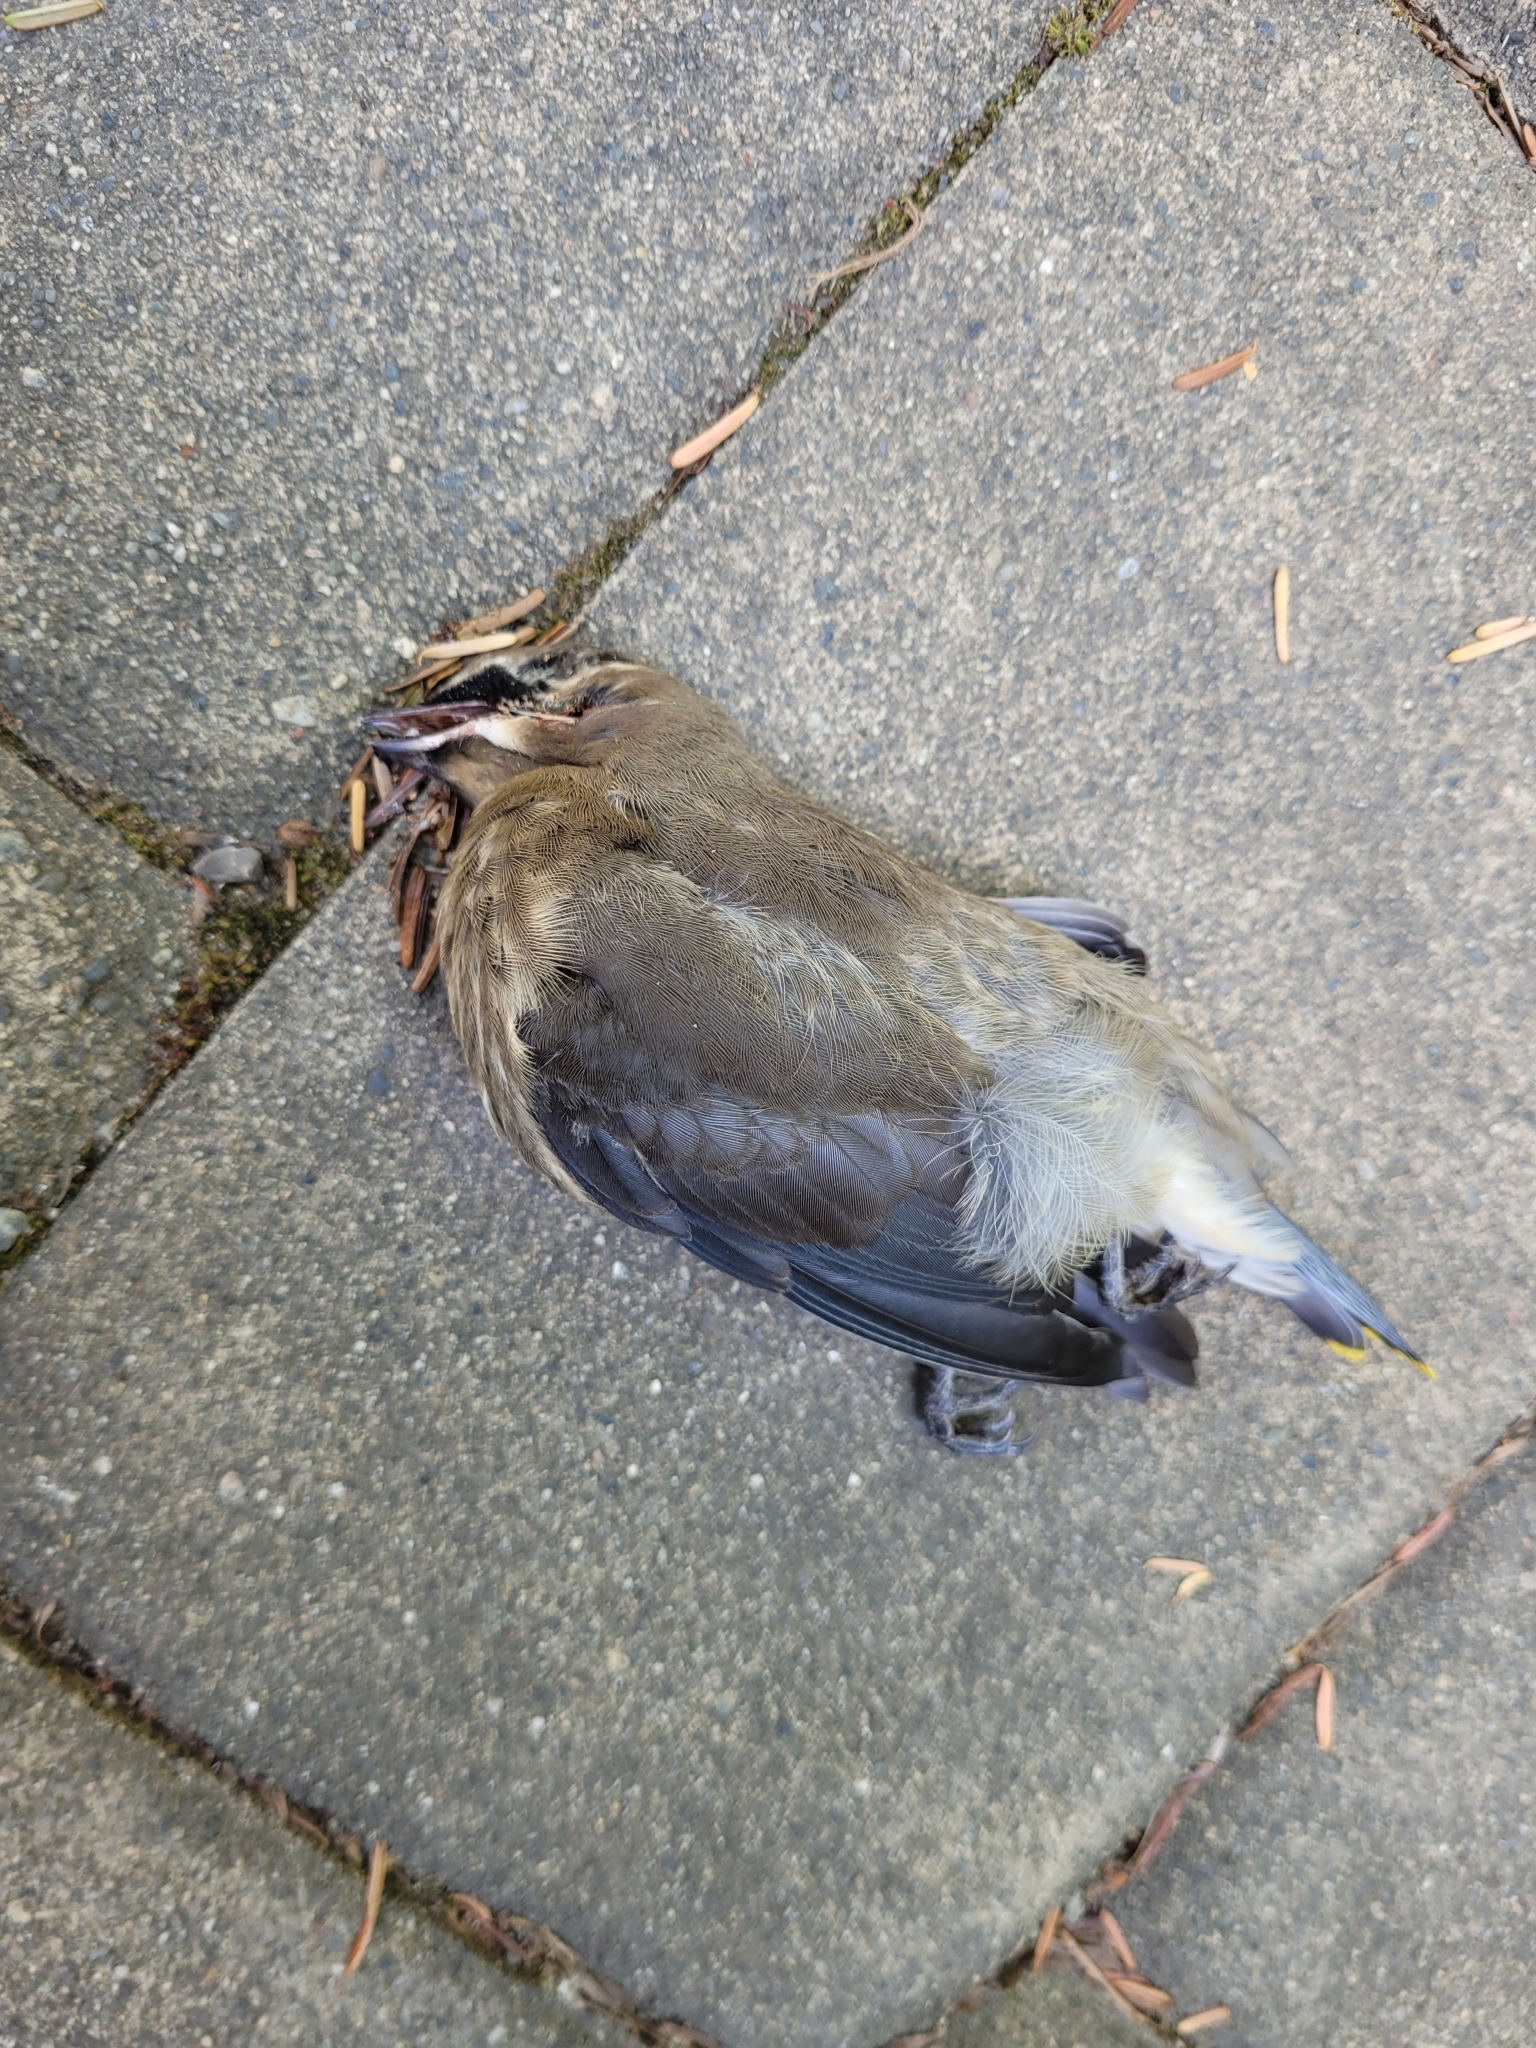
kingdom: Animalia
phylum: Chordata
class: Aves
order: Passeriformes
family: Bombycillidae
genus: Bombycilla
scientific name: Bombycilla cedrorum
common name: Cedar waxwing
